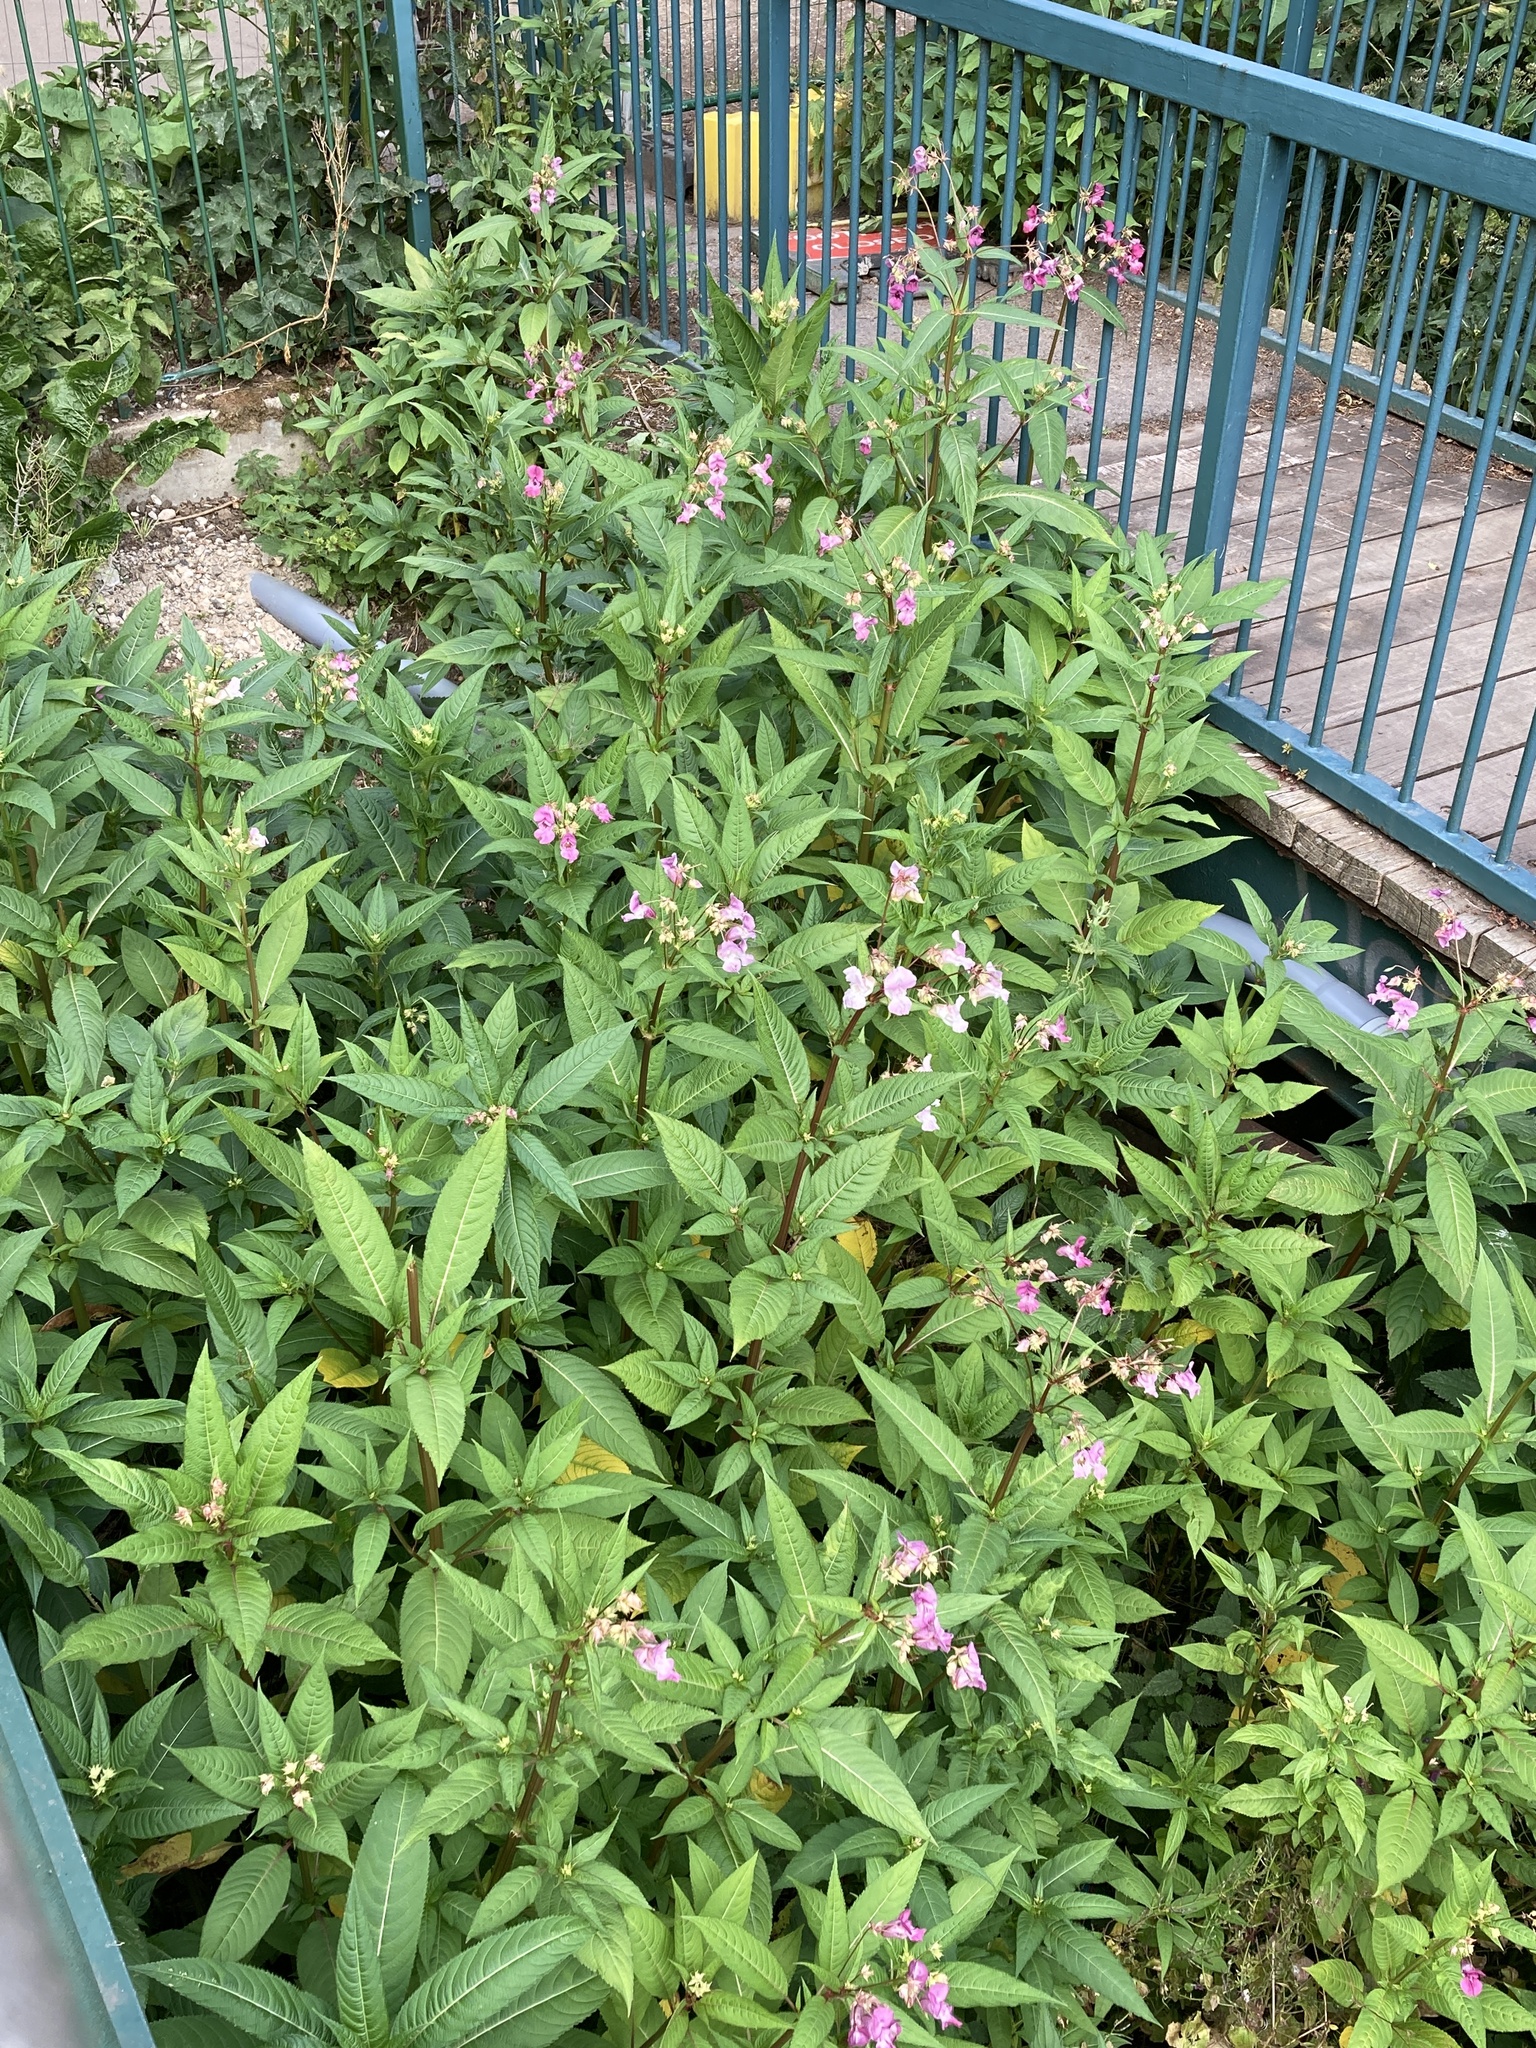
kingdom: Plantae
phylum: Tracheophyta
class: Magnoliopsida
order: Ericales
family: Balsaminaceae
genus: Impatiens
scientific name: Impatiens glandulifera
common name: Himalayan balsam
